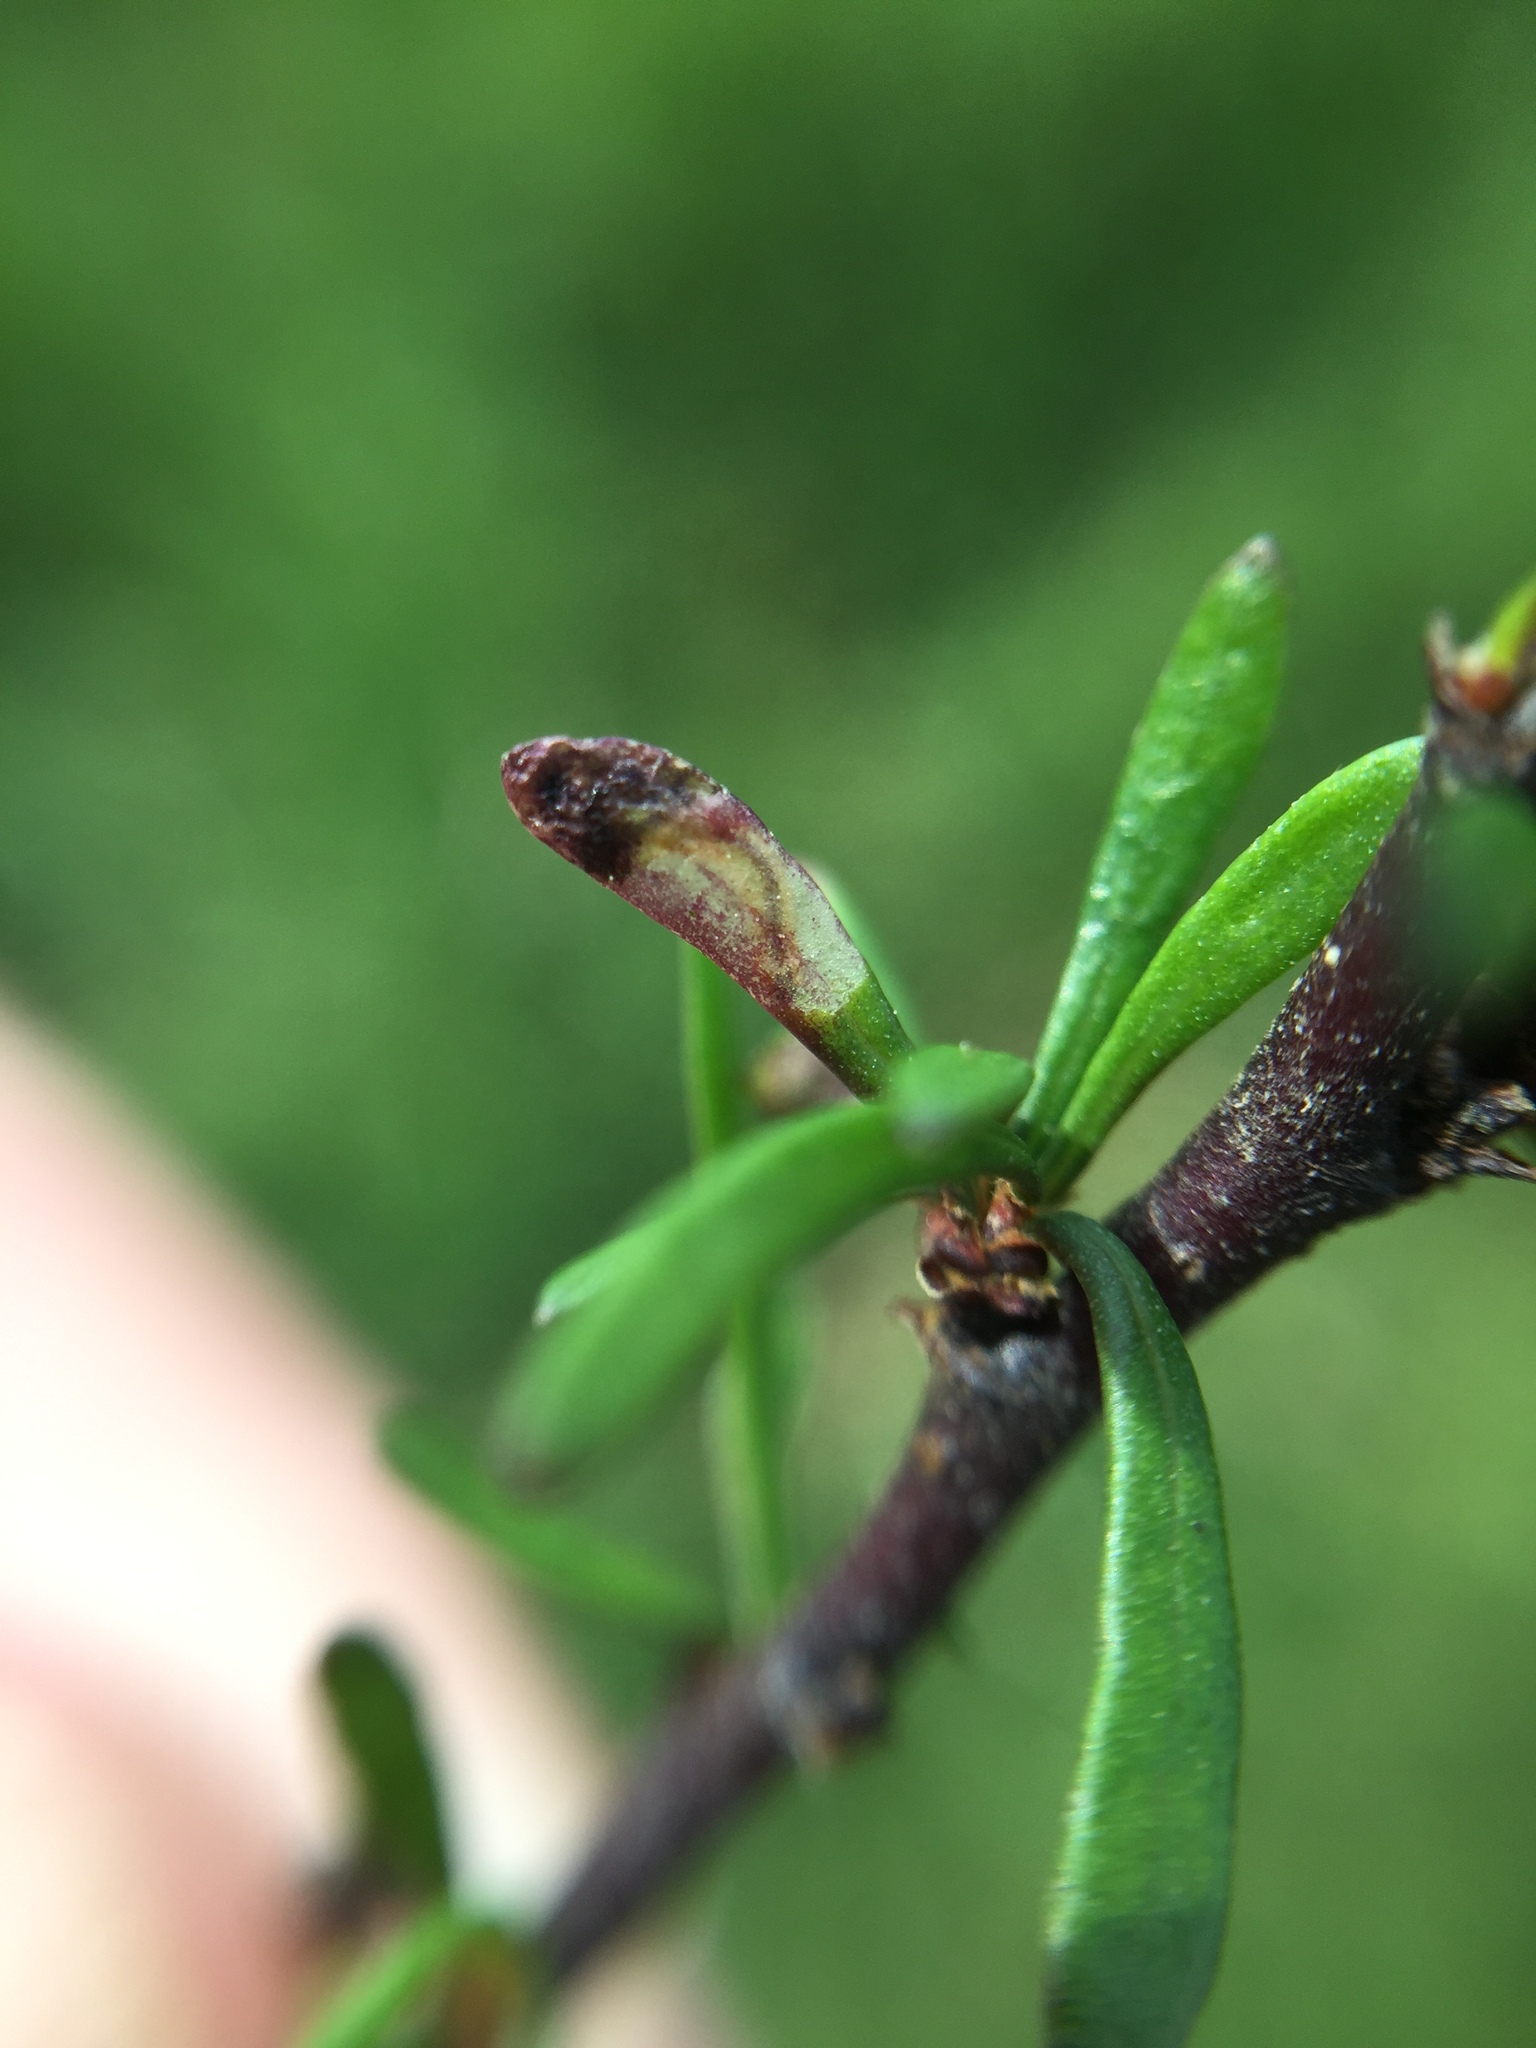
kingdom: Animalia
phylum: Arthropoda
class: Insecta
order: Lepidoptera
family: Nepticulidae
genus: Stigmella
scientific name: Stigmella aigialeia
